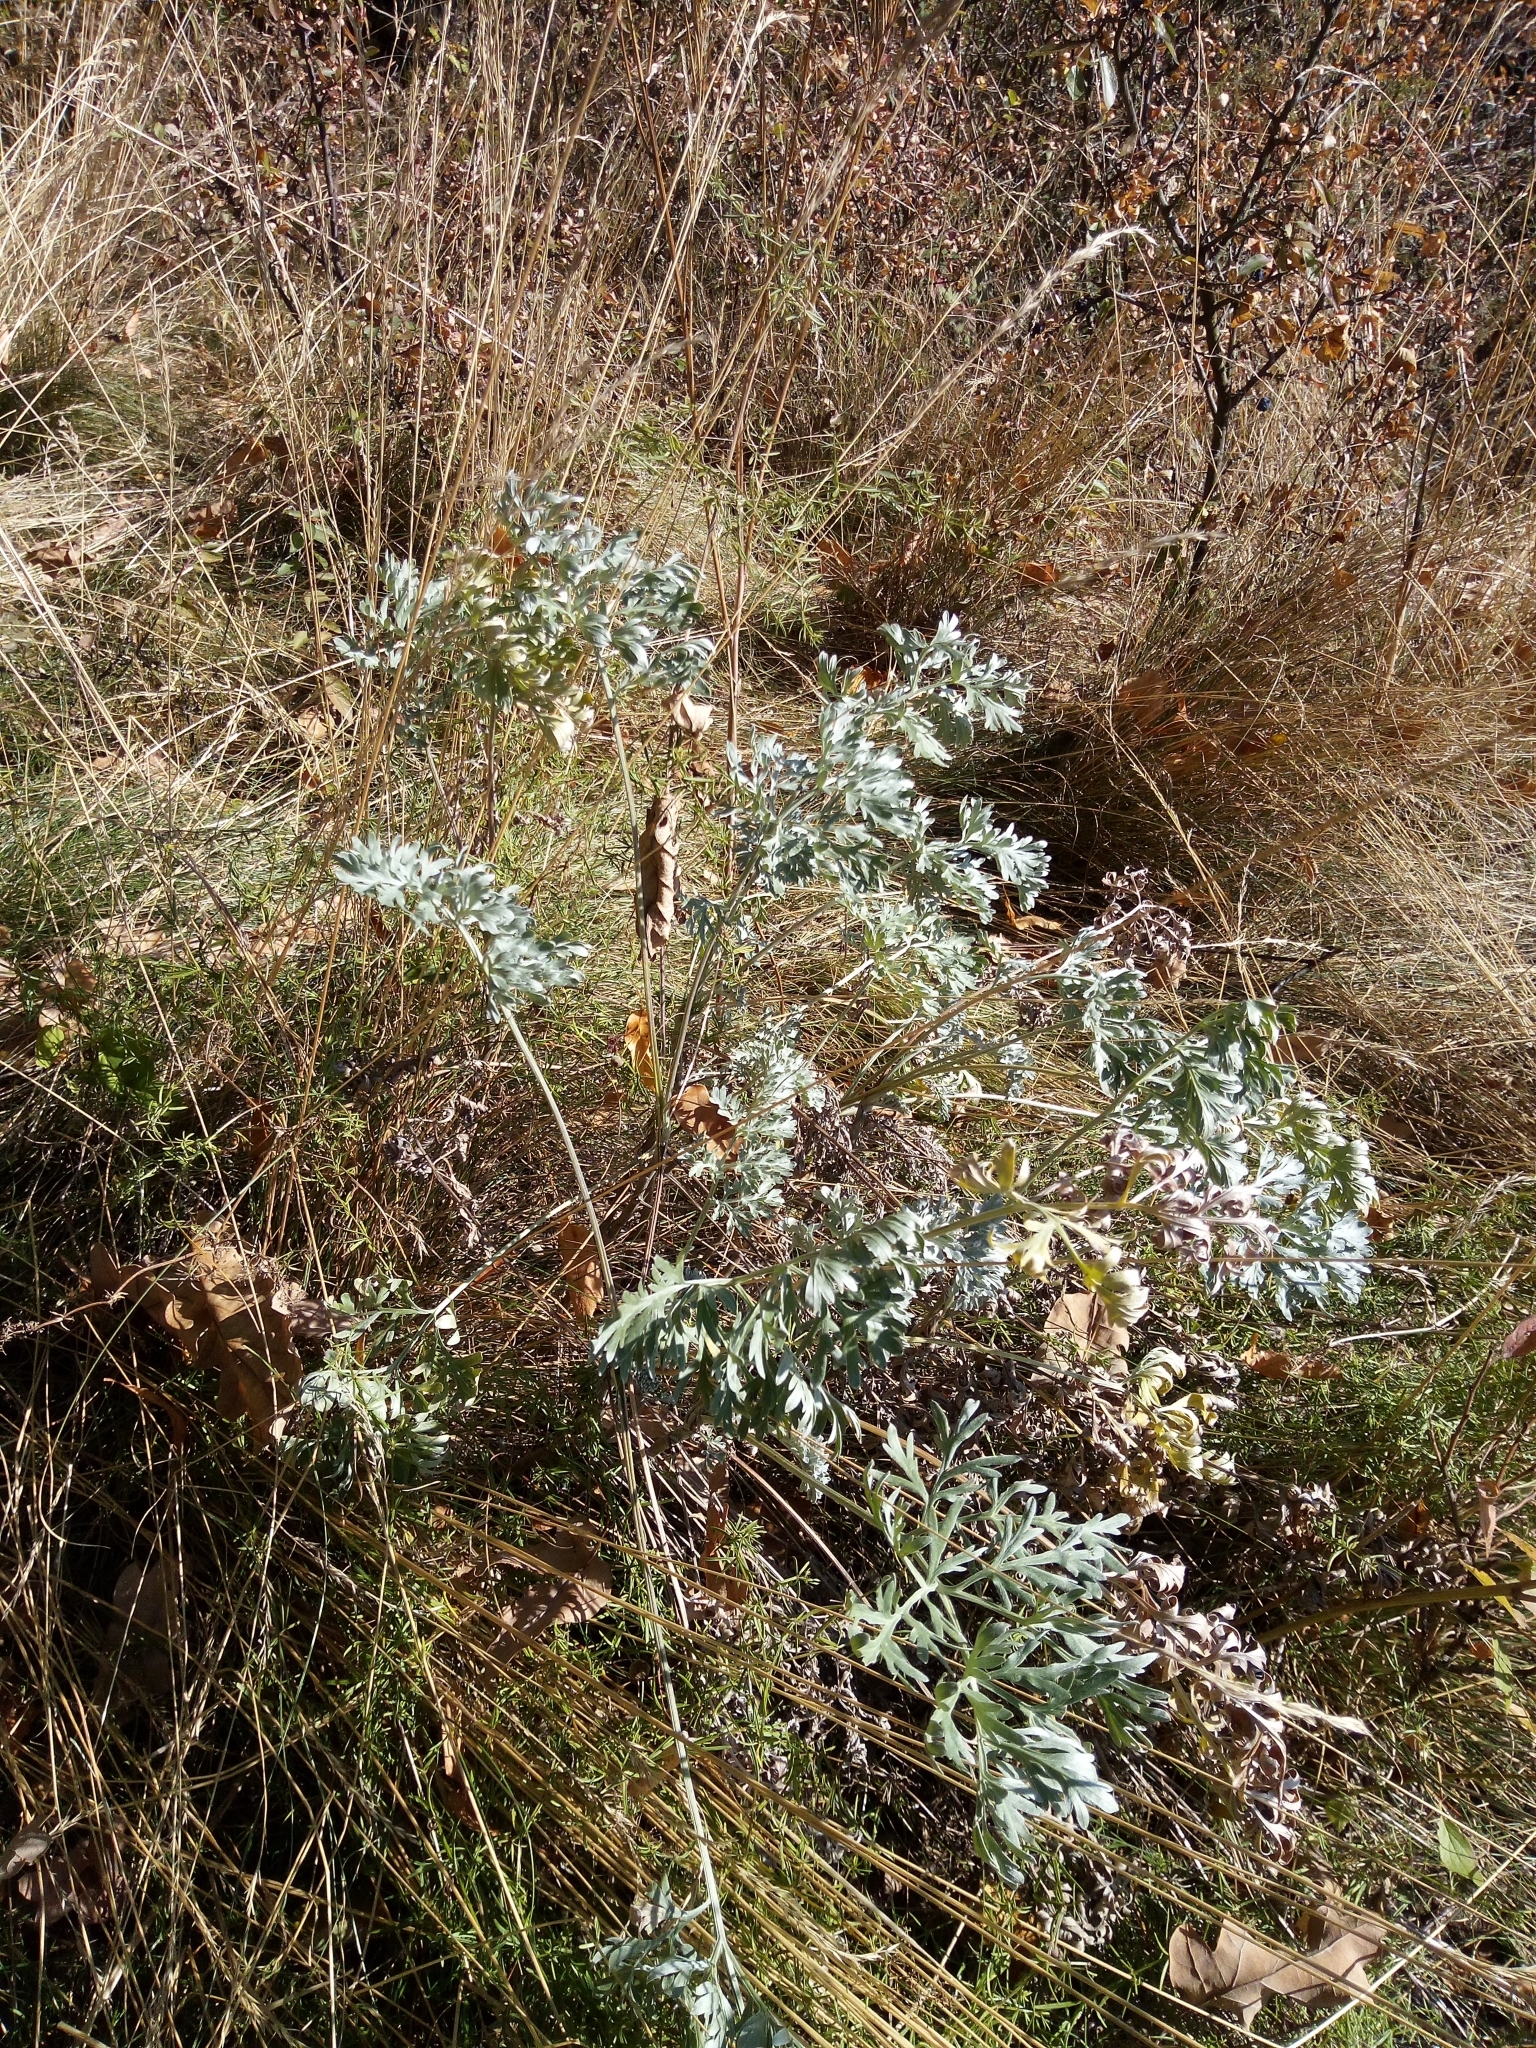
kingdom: Plantae
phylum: Tracheophyta
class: Magnoliopsida
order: Asterales
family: Asteraceae
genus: Artemisia
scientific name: Artemisia absinthium
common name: Wormwood
